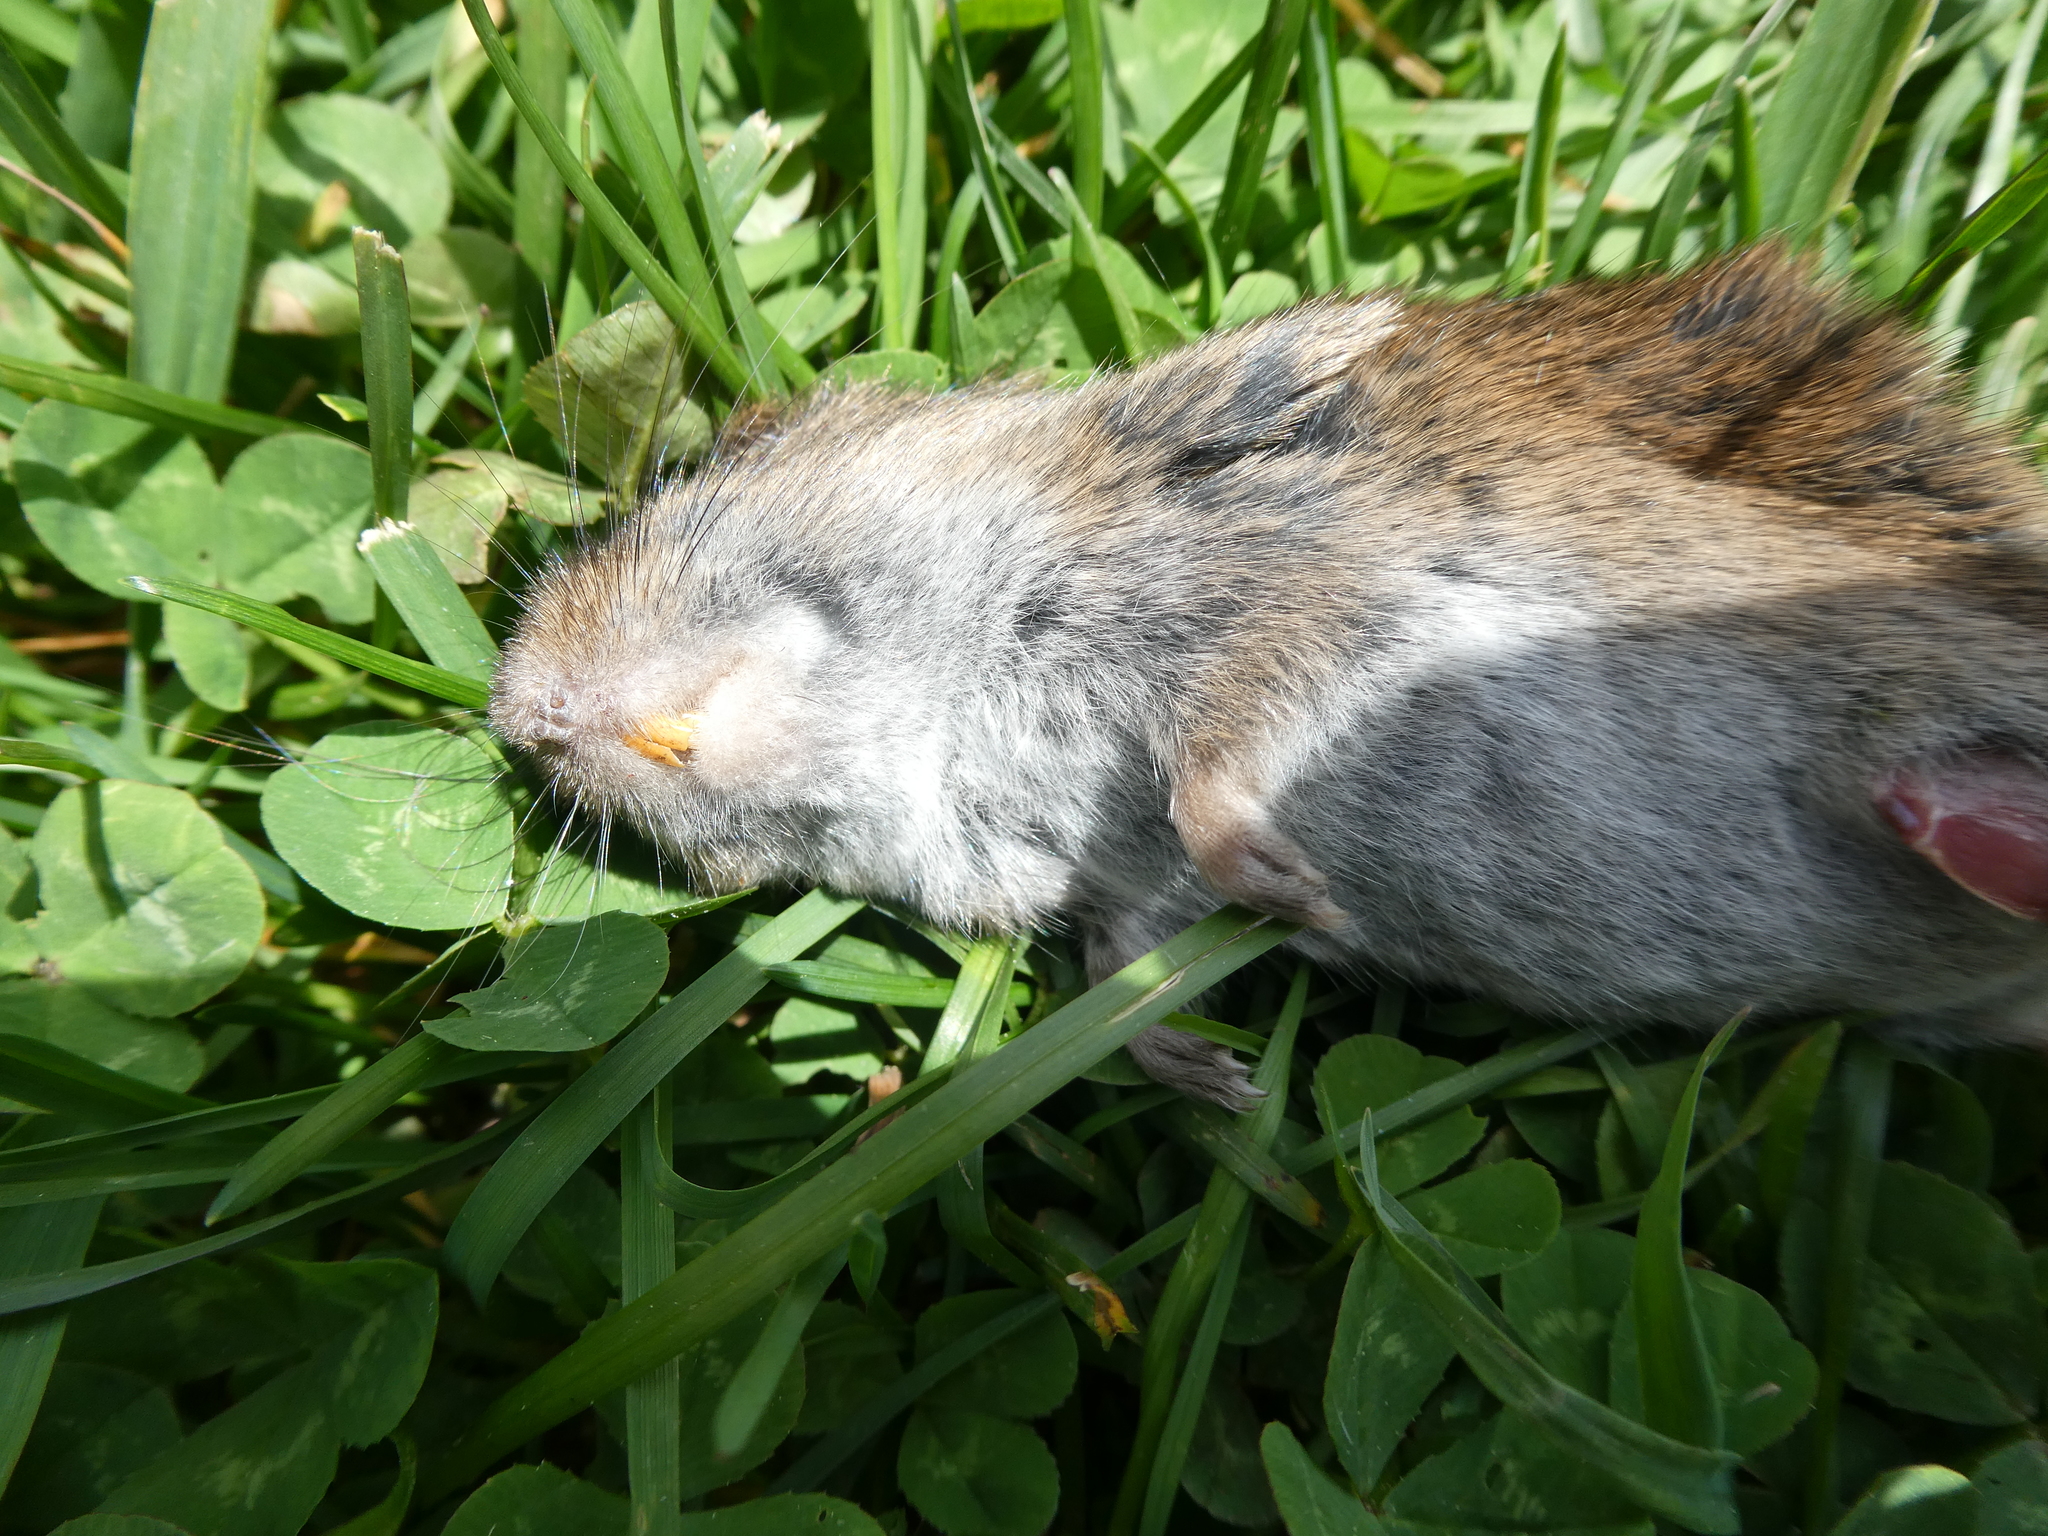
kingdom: Animalia
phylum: Chordata
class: Mammalia
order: Rodentia
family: Cricetidae
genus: Microtus
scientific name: Microtus pennsylvanicus
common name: Meadow vole
